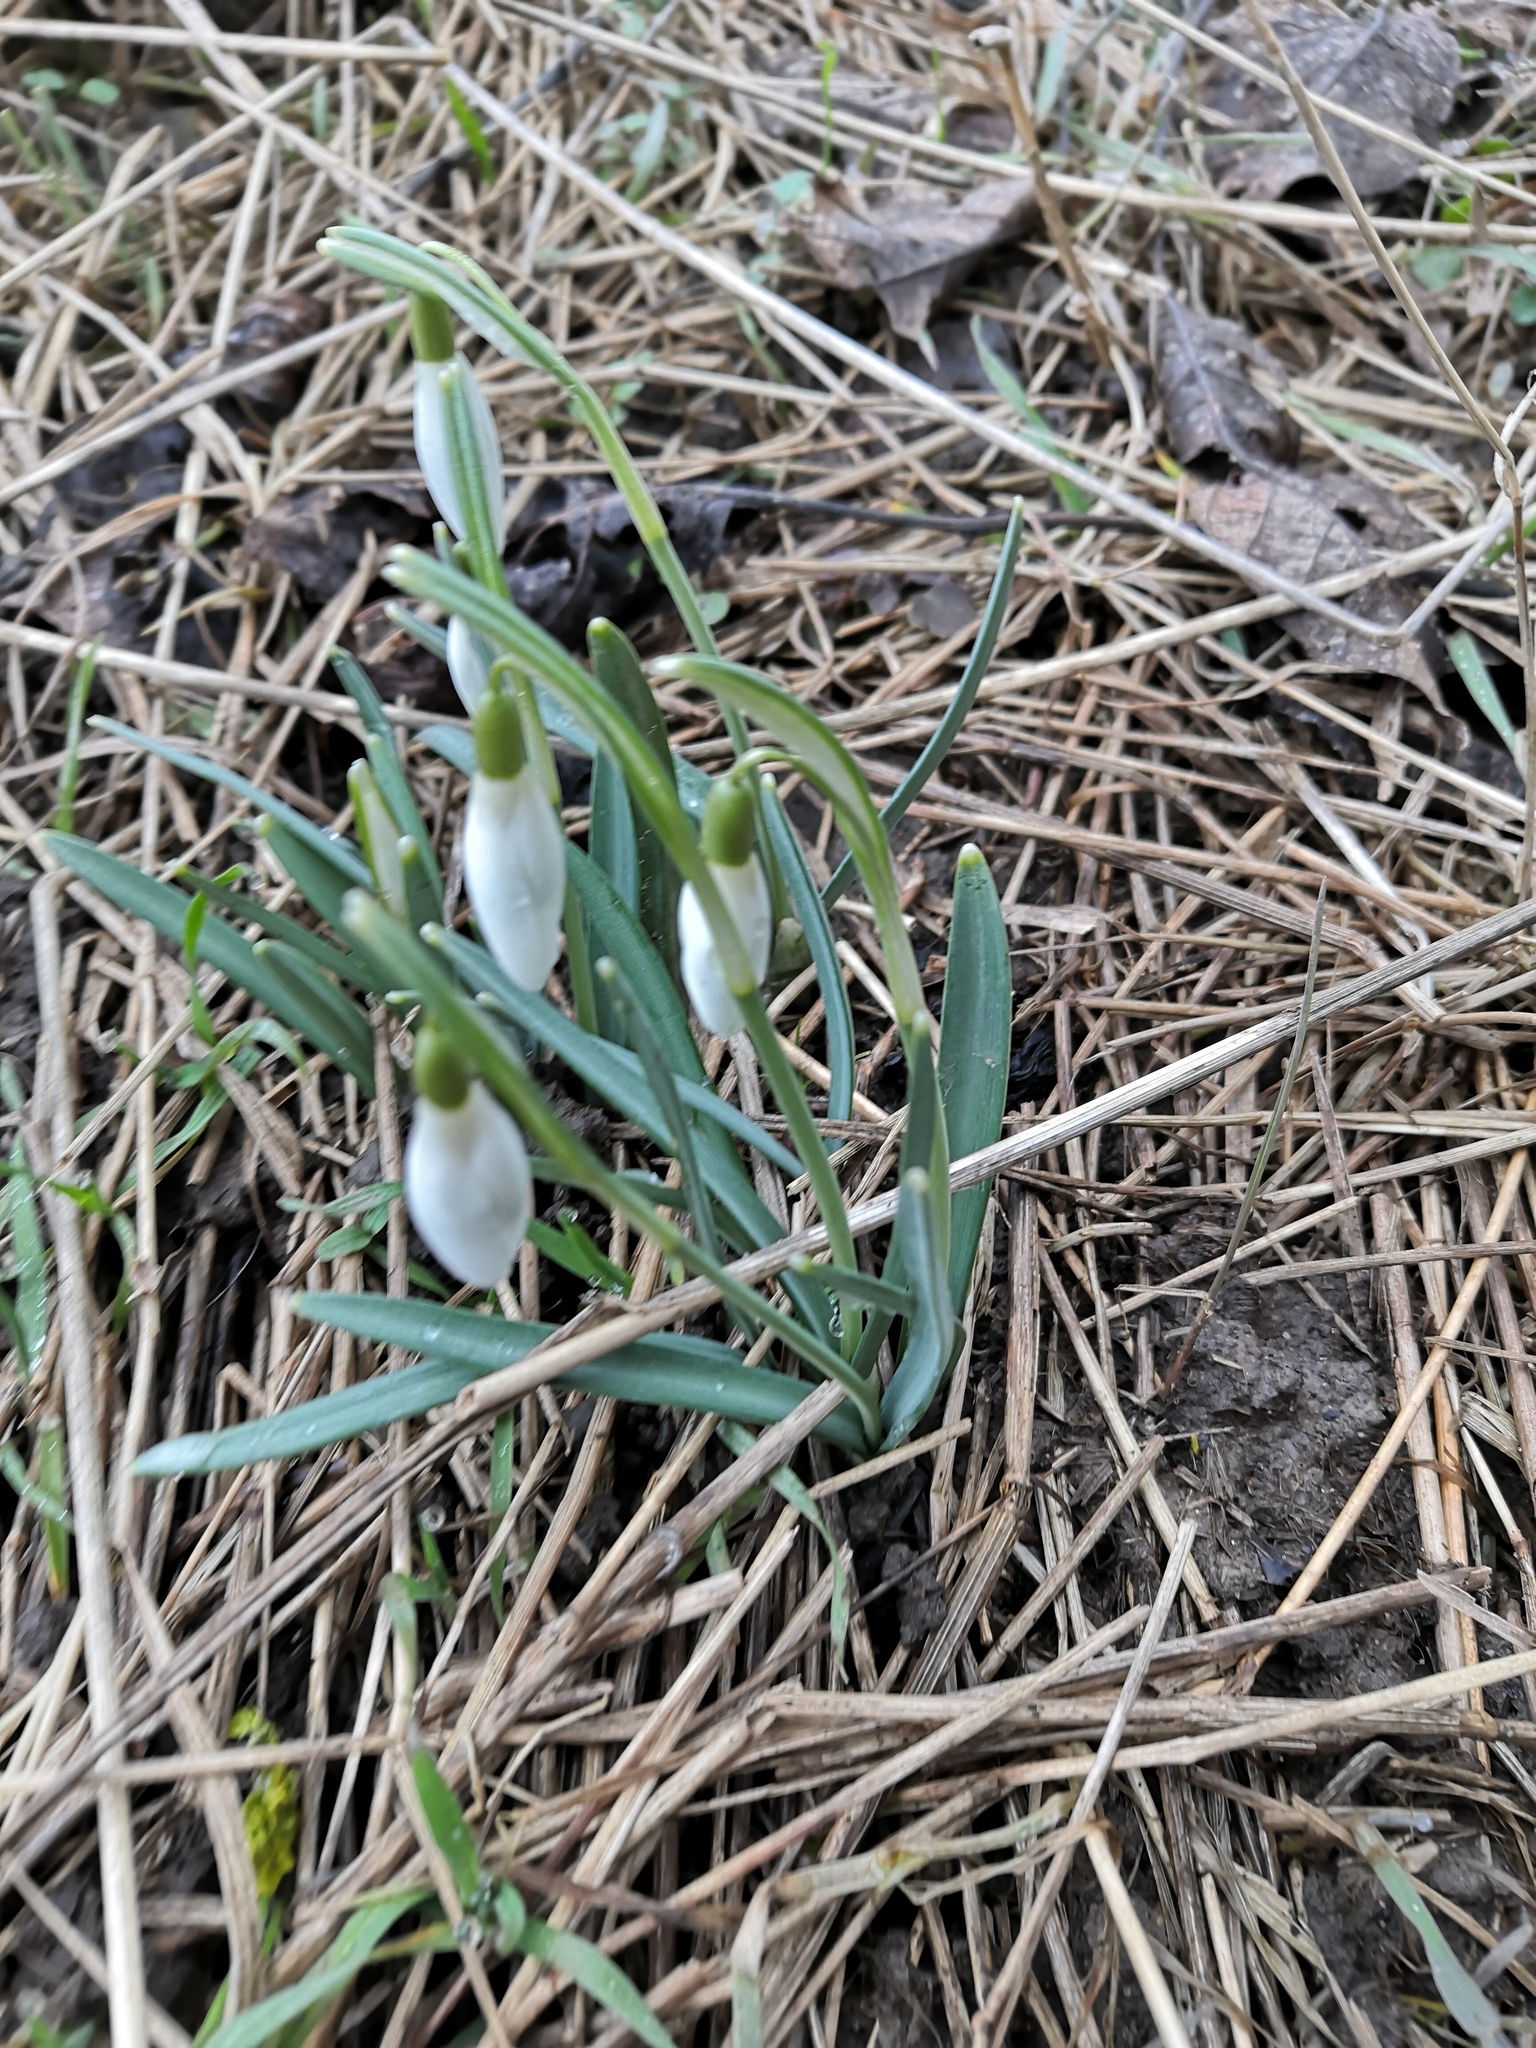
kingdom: Plantae
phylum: Tracheophyta
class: Liliopsida
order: Asparagales
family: Amaryllidaceae
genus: Galanthus
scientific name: Galanthus nivalis
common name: Snowdrop
